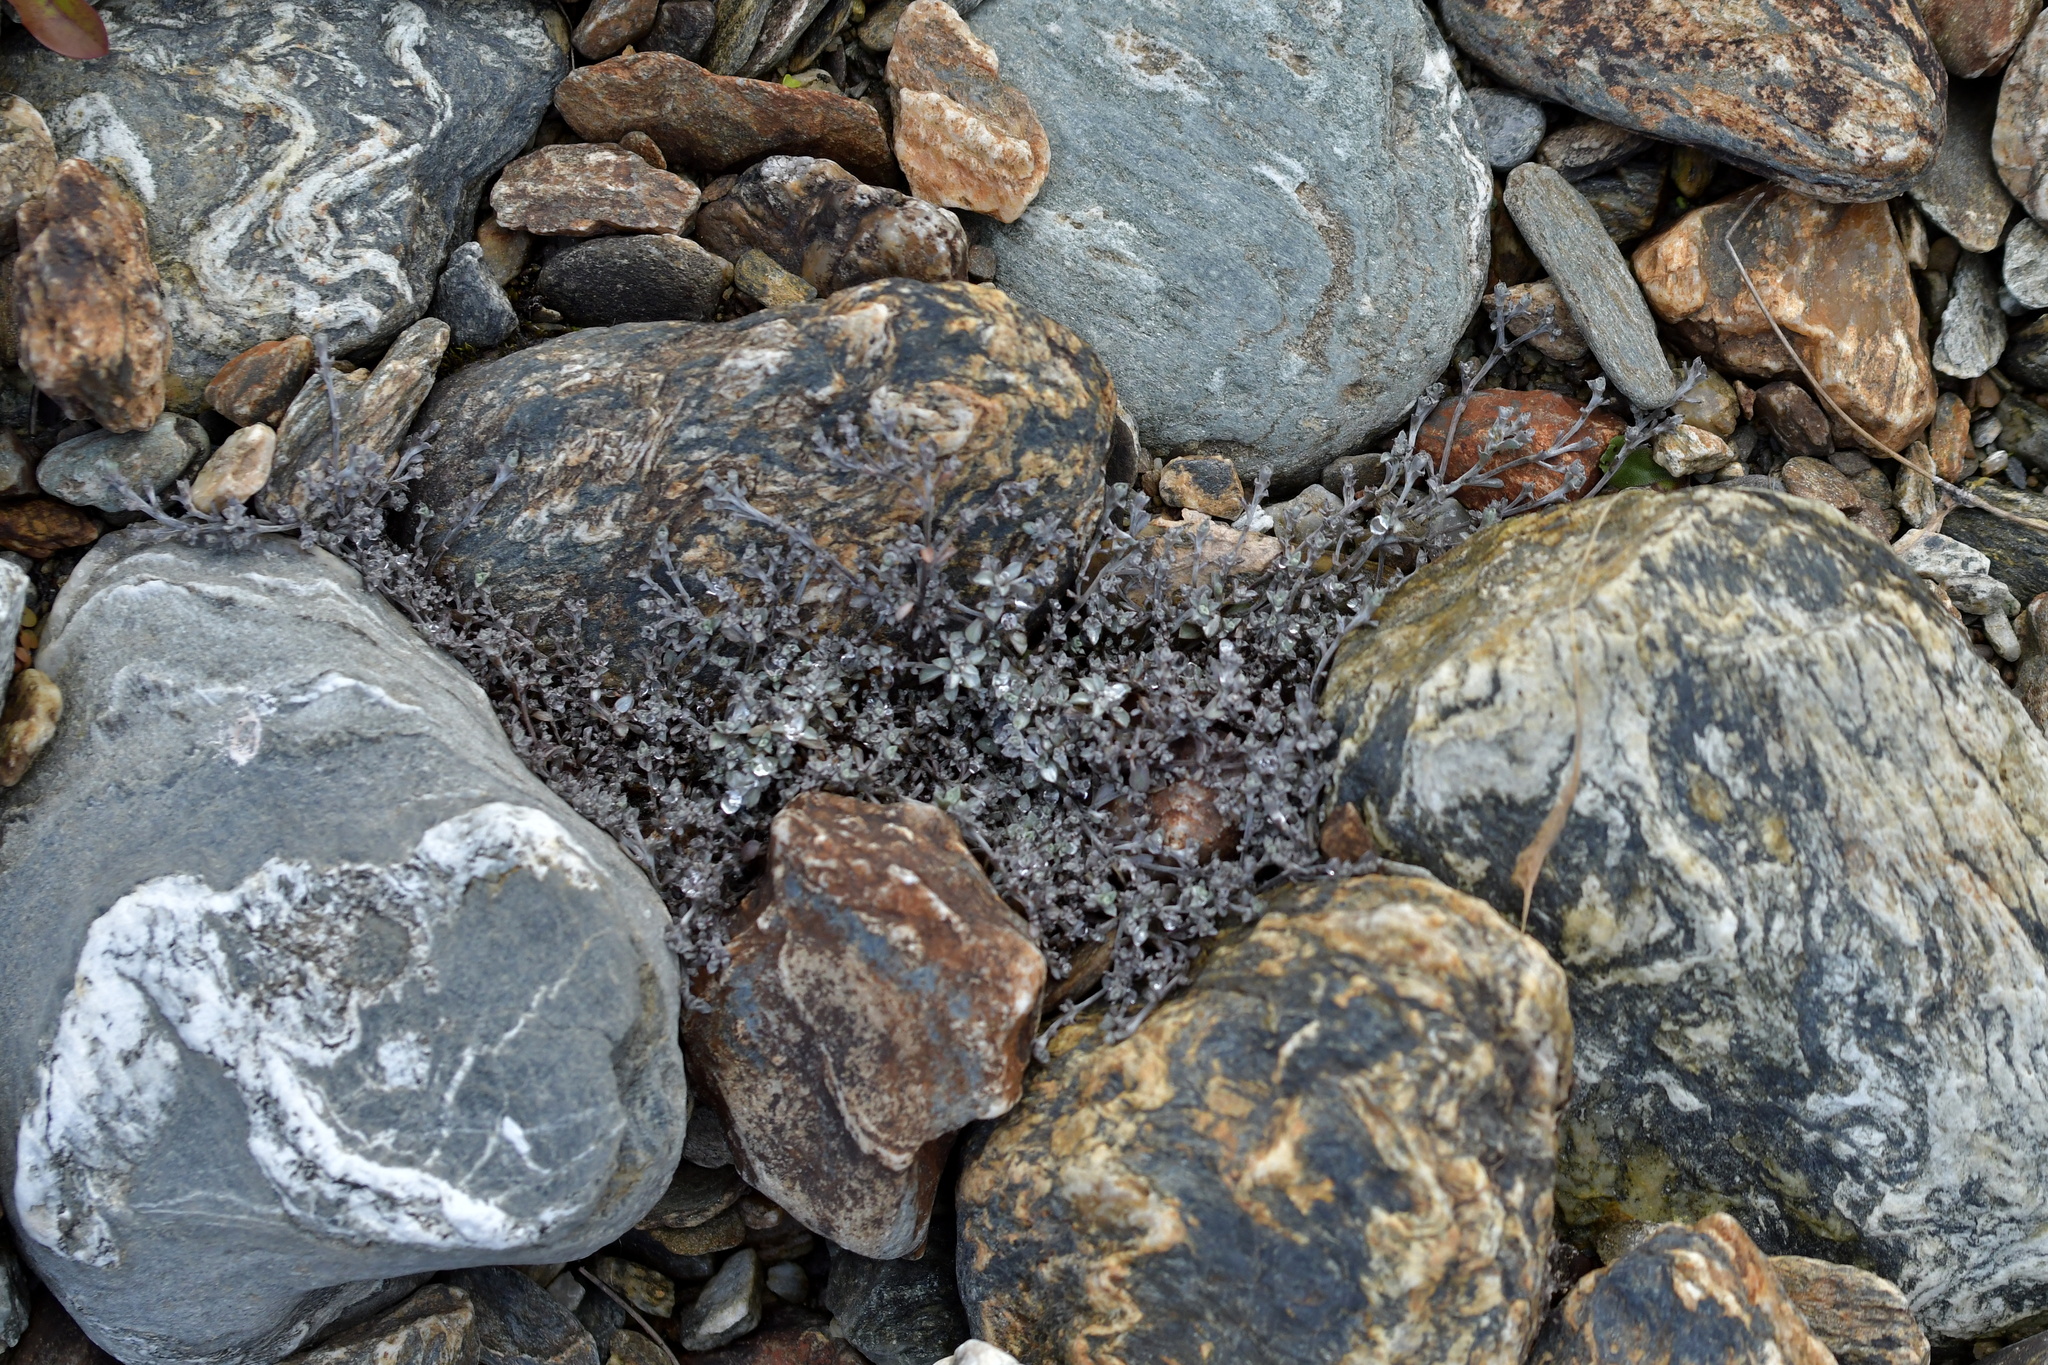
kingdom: Plantae
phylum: Tracheophyta
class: Magnoliopsida
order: Asterales
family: Asteraceae
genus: Raoulia
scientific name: Raoulia tenuicaulis
